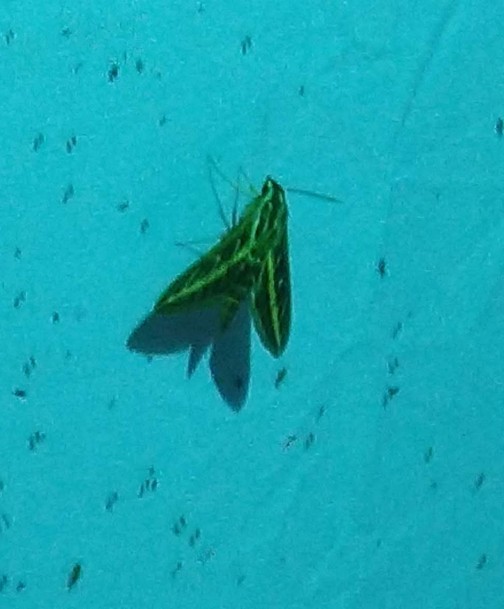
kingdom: Animalia
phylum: Arthropoda
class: Insecta
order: Lepidoptera
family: Sphingidae
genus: Hyles
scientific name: Hyles lineata
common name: White-lined sphinx
